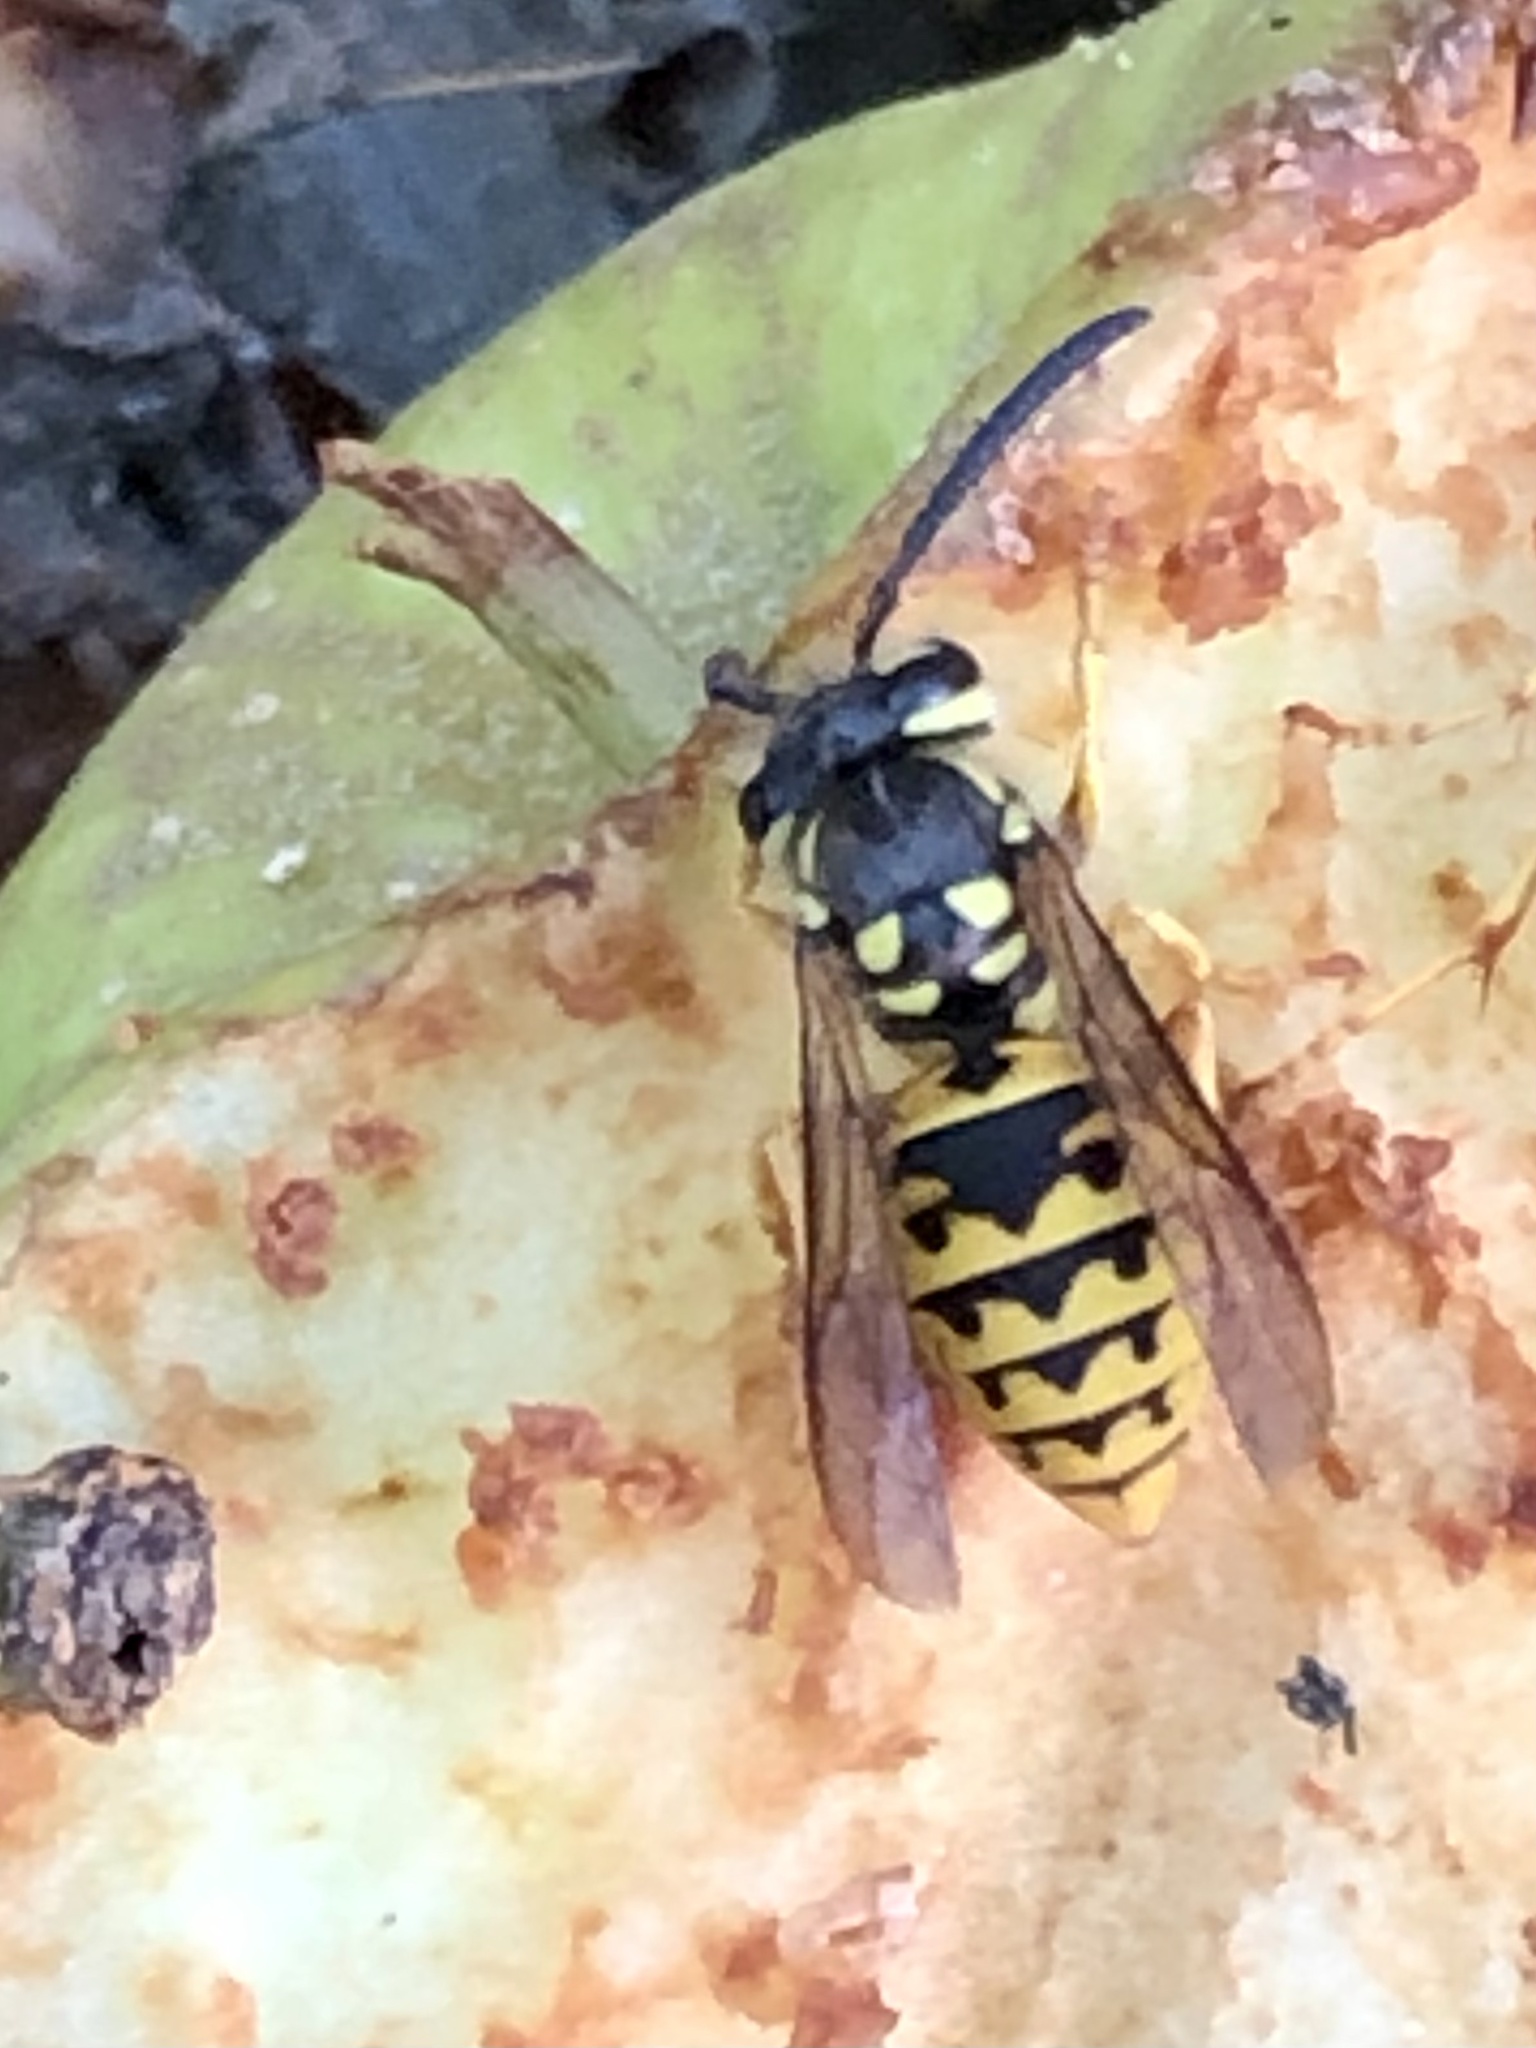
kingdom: Animalia
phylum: Arthropoda
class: Insecta
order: Hymenoptera
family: Vespidae
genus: Vespula
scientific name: Vespula germanica
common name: German wasp
